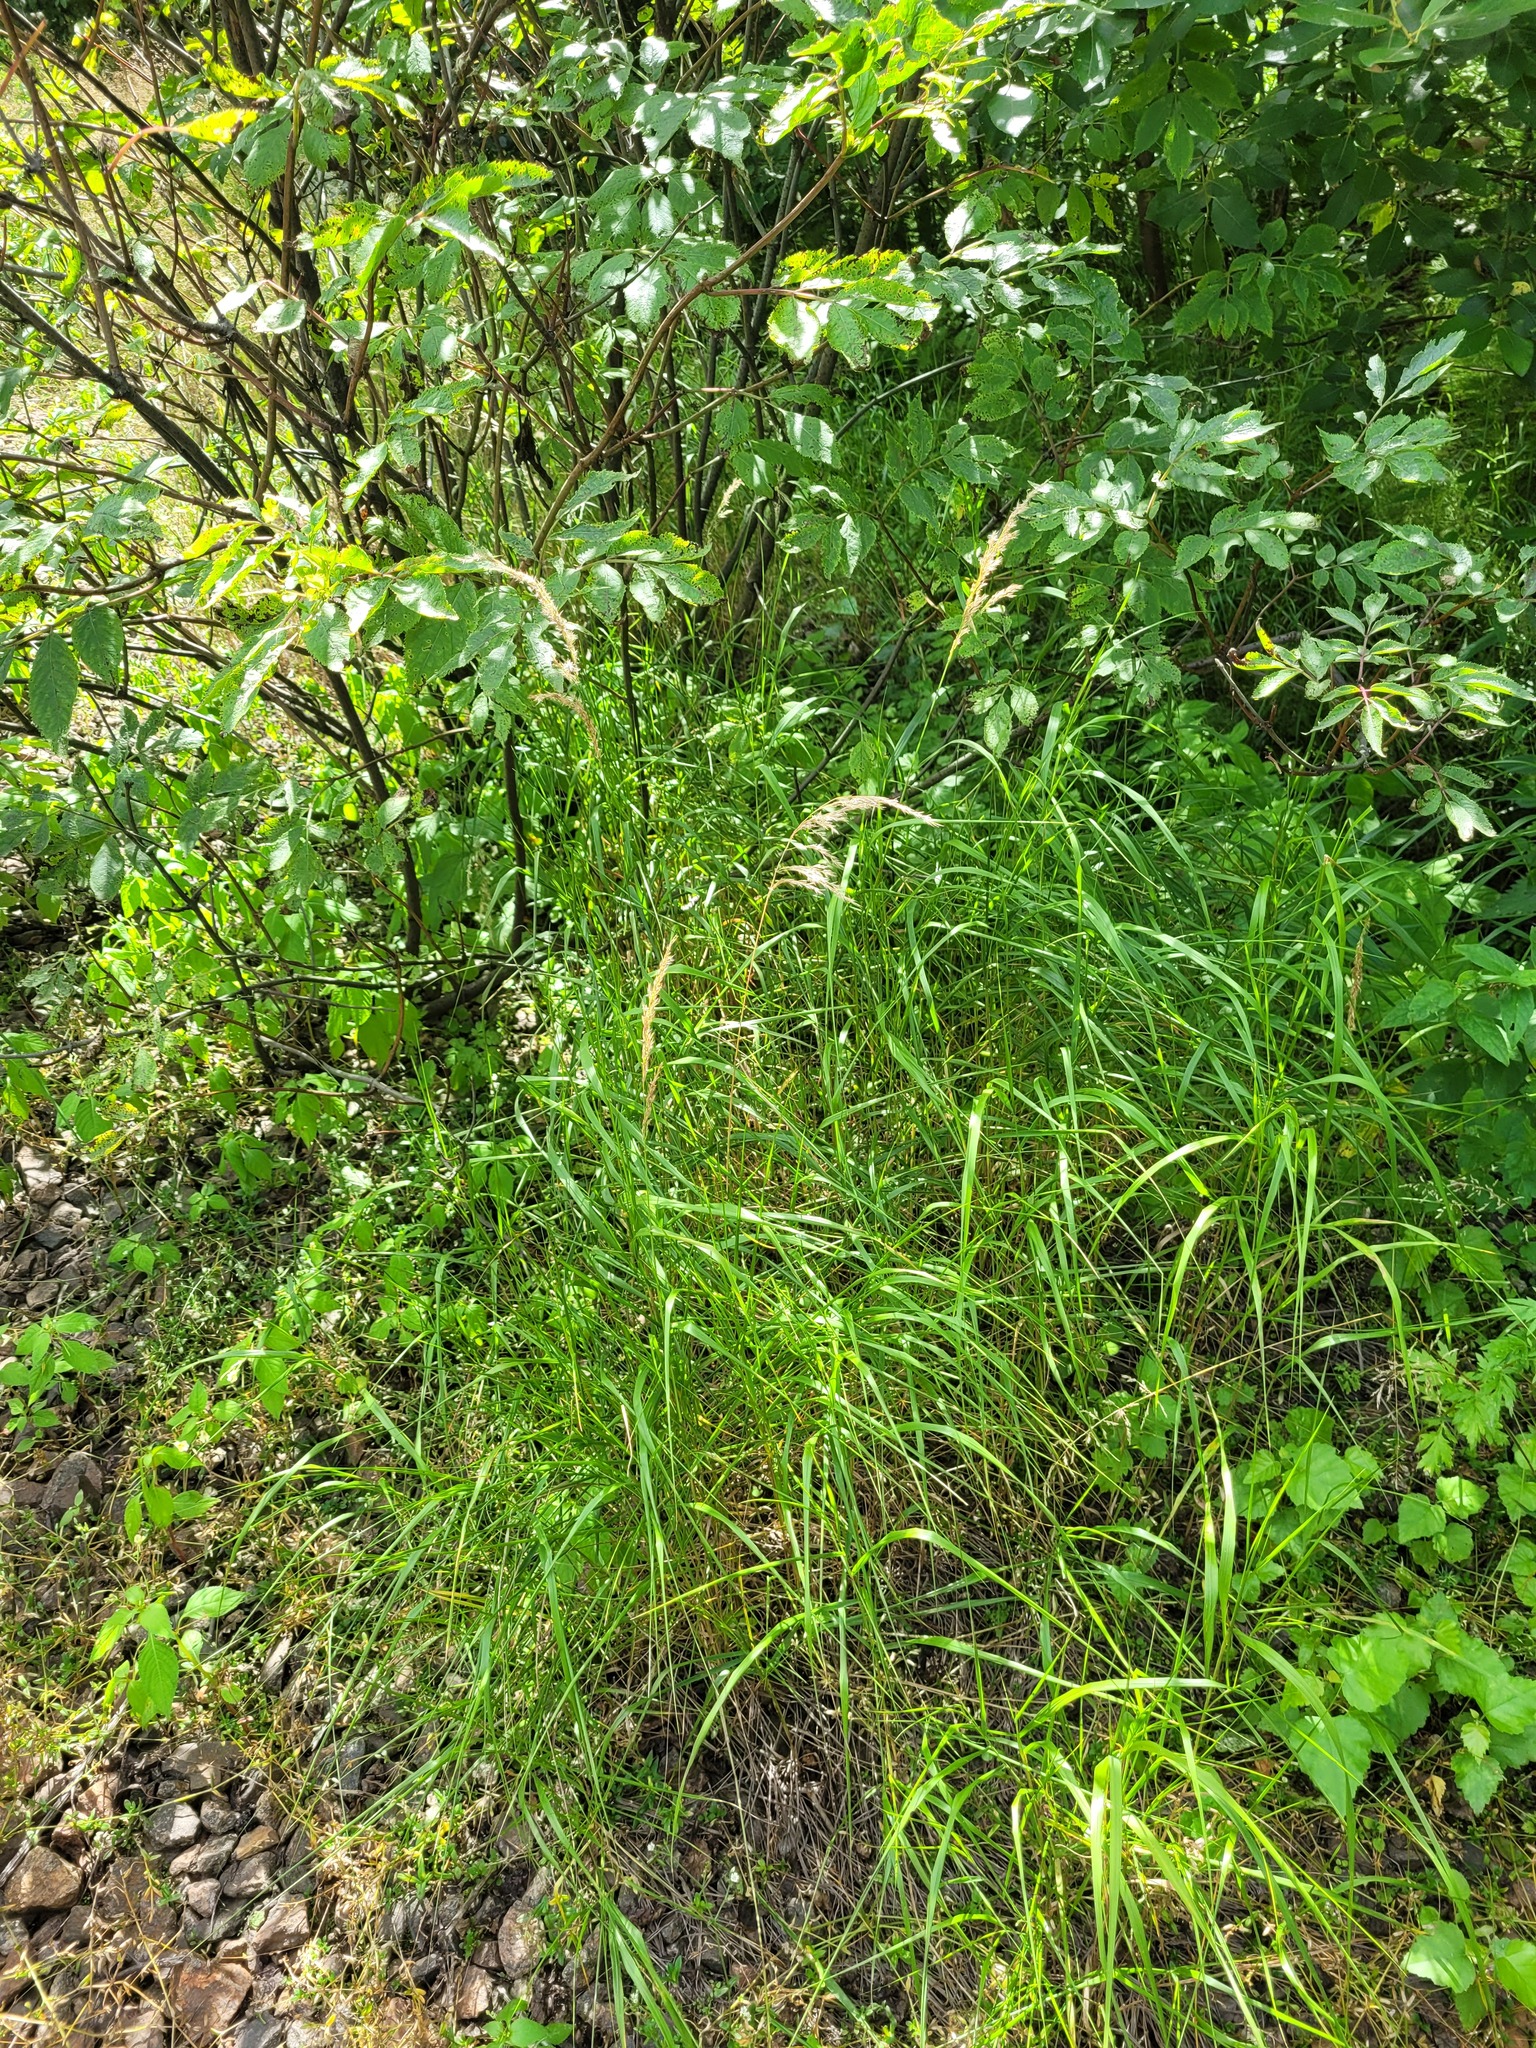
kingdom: Plantae
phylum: Tracheophyta
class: Liliopsida
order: Poales
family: Poaceae
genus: Calamagrostis
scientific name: Calamagrostis canescens
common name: Purple small-reed
